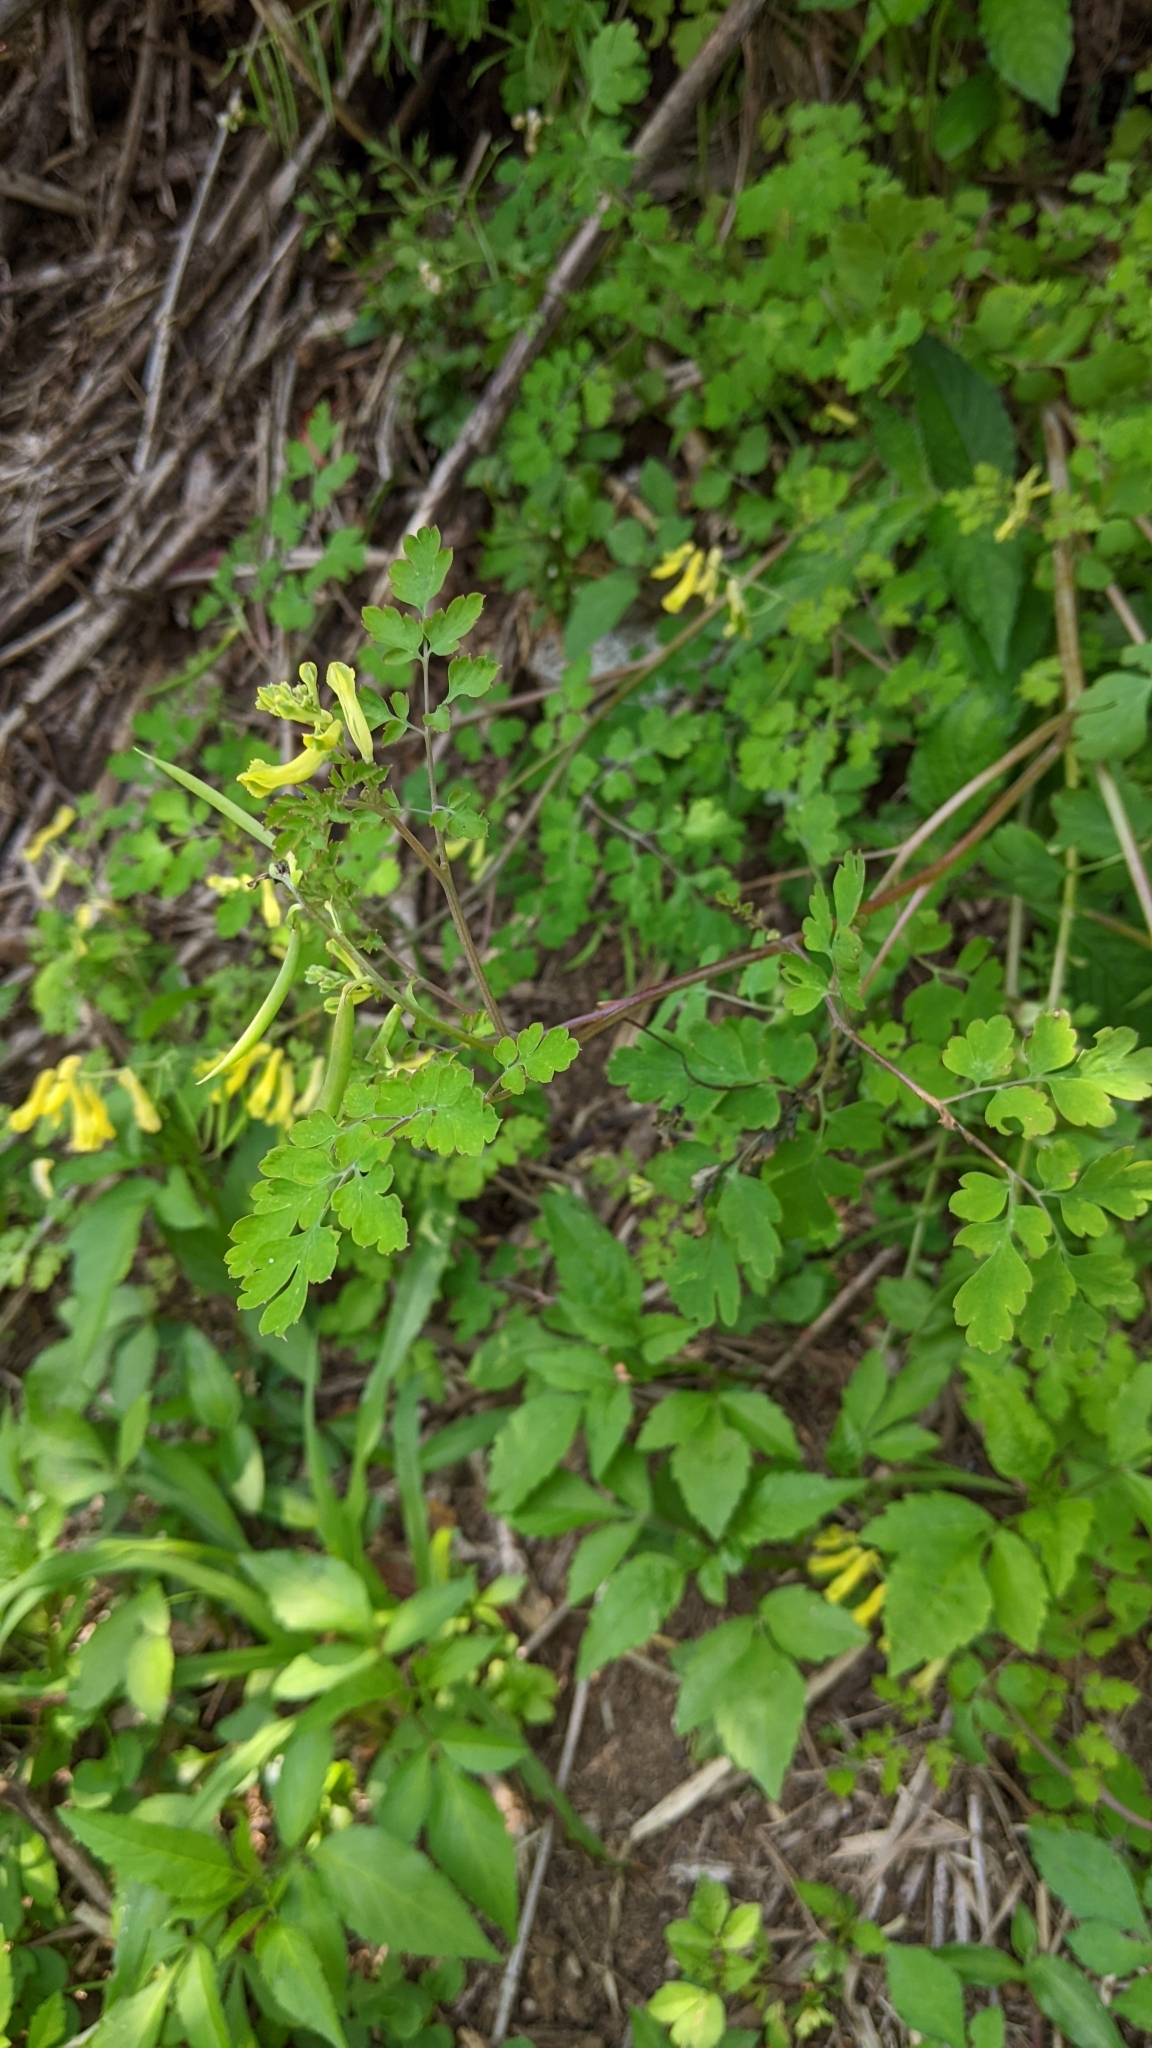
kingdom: Plantae
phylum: Tracheophyta
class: Magnoliopsida
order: Ranunculales
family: Papaveraceae
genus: Corydalis
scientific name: Corydalis balansae
